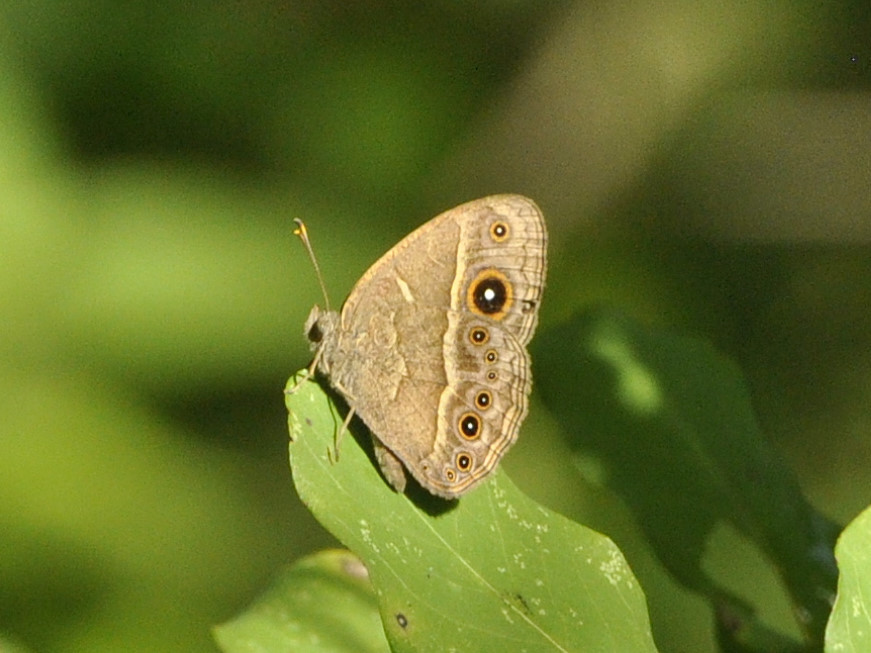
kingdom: Animalia
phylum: Arthropoda
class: Insecta
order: Lepidoptera
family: Nymphalidae
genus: Mycalesis
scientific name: Mycalesis anynana
